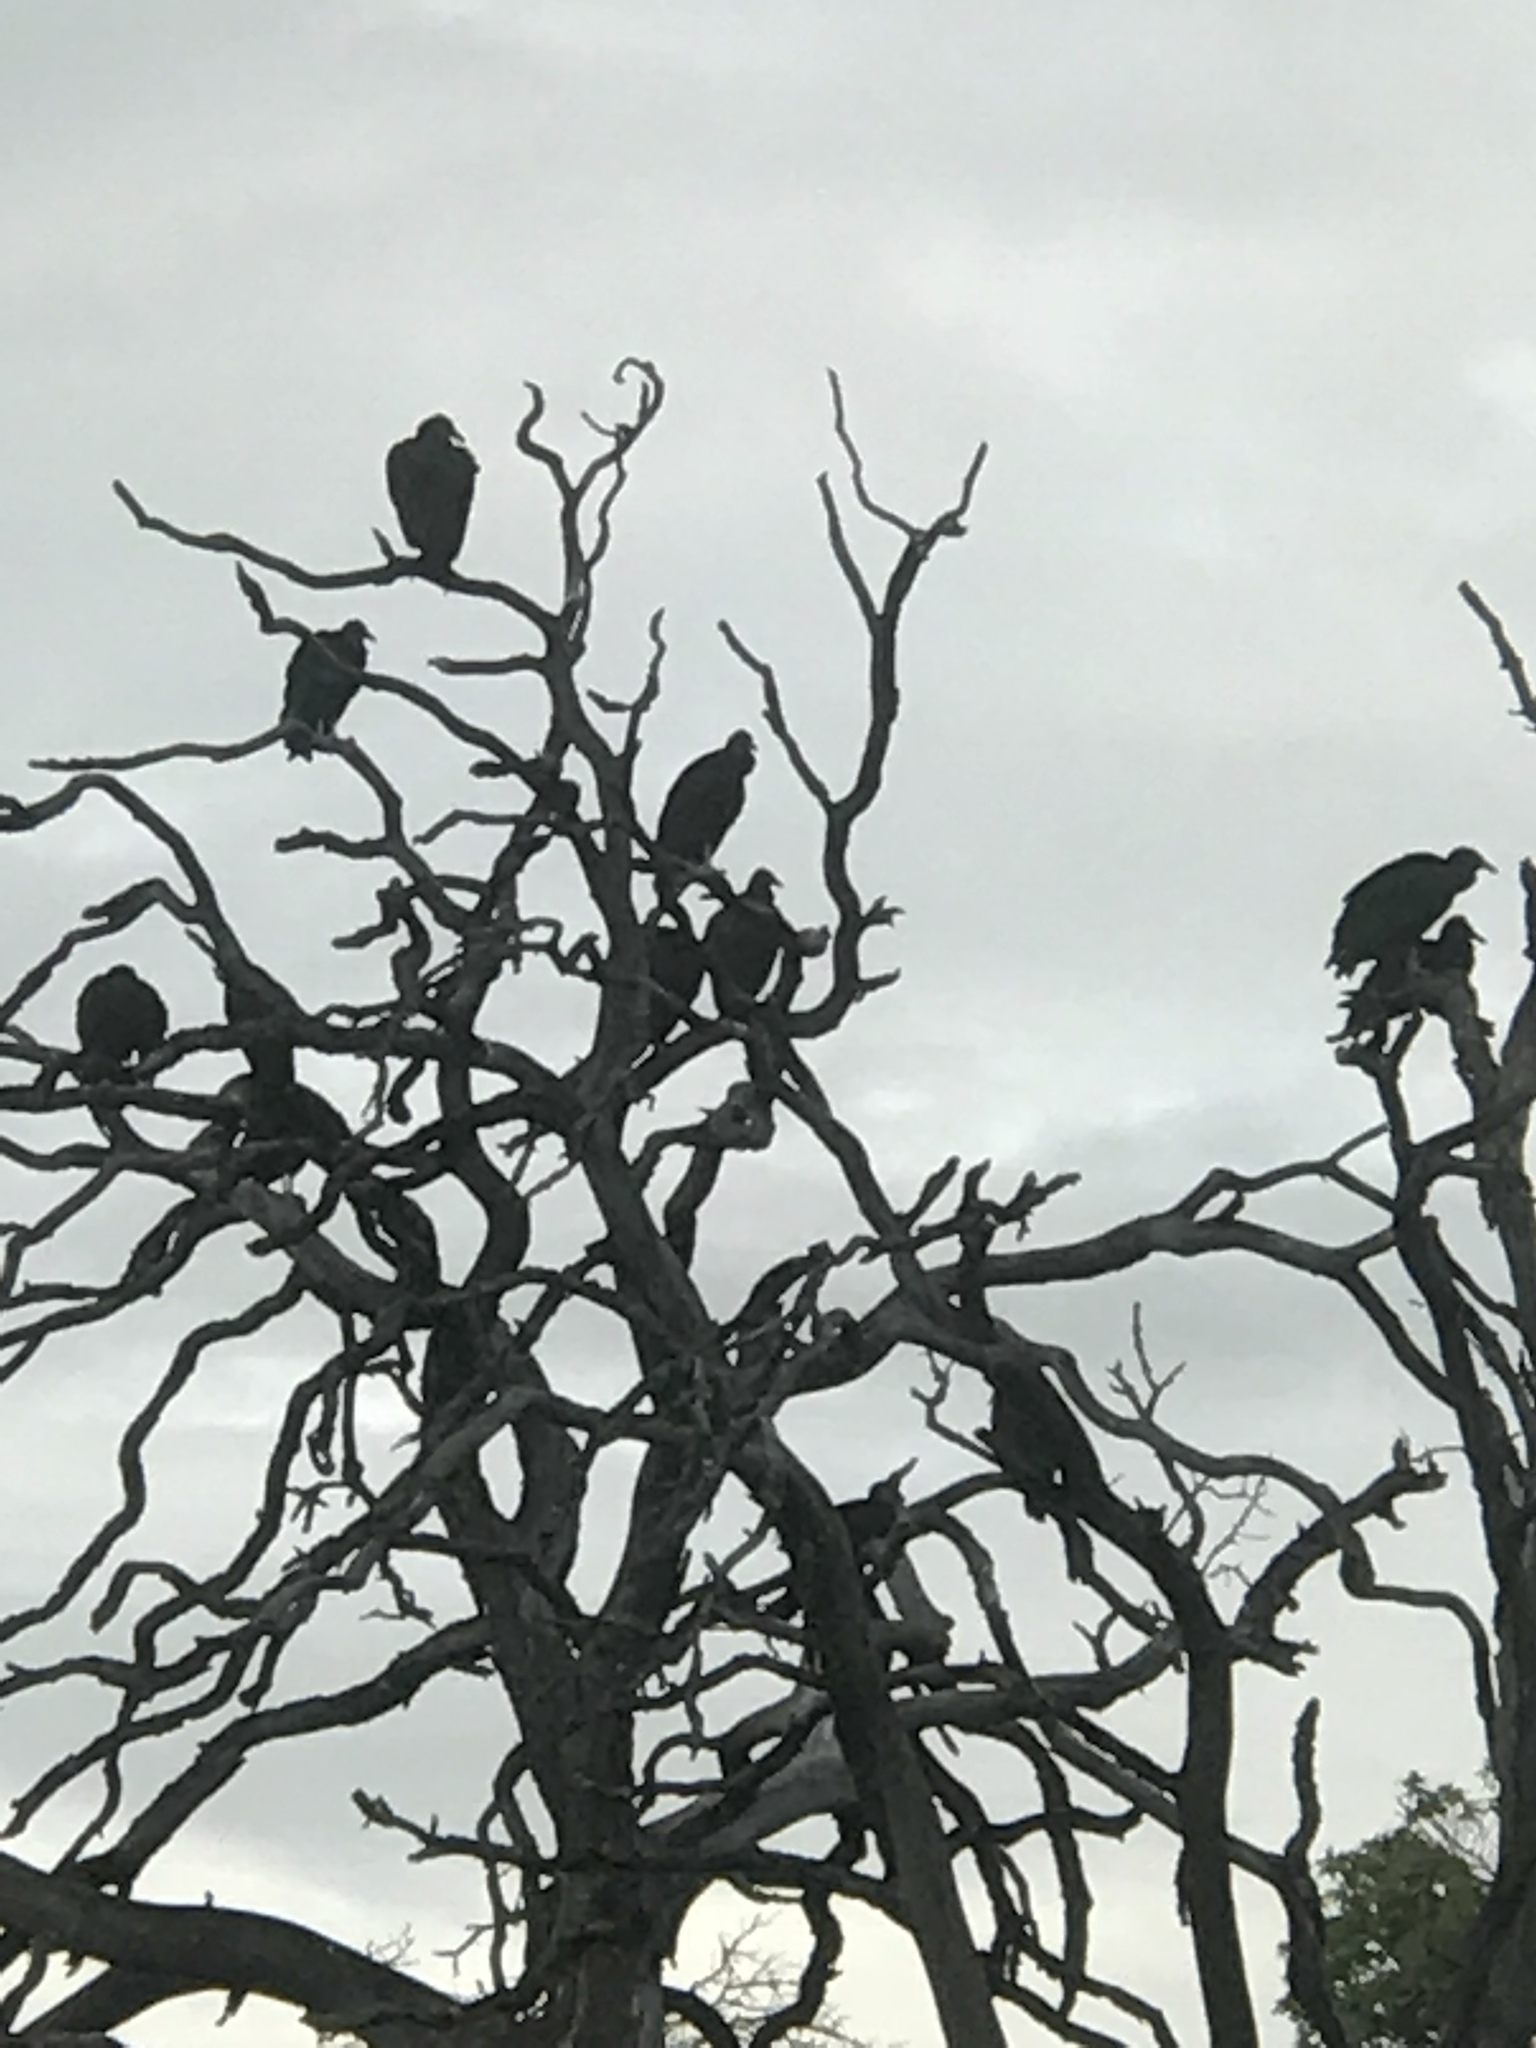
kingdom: Animalia
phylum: Chordata
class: Aves
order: Accipitriformes
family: Cathartidae
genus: Coragyps
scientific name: Coragyps atratus
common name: Black vulture
